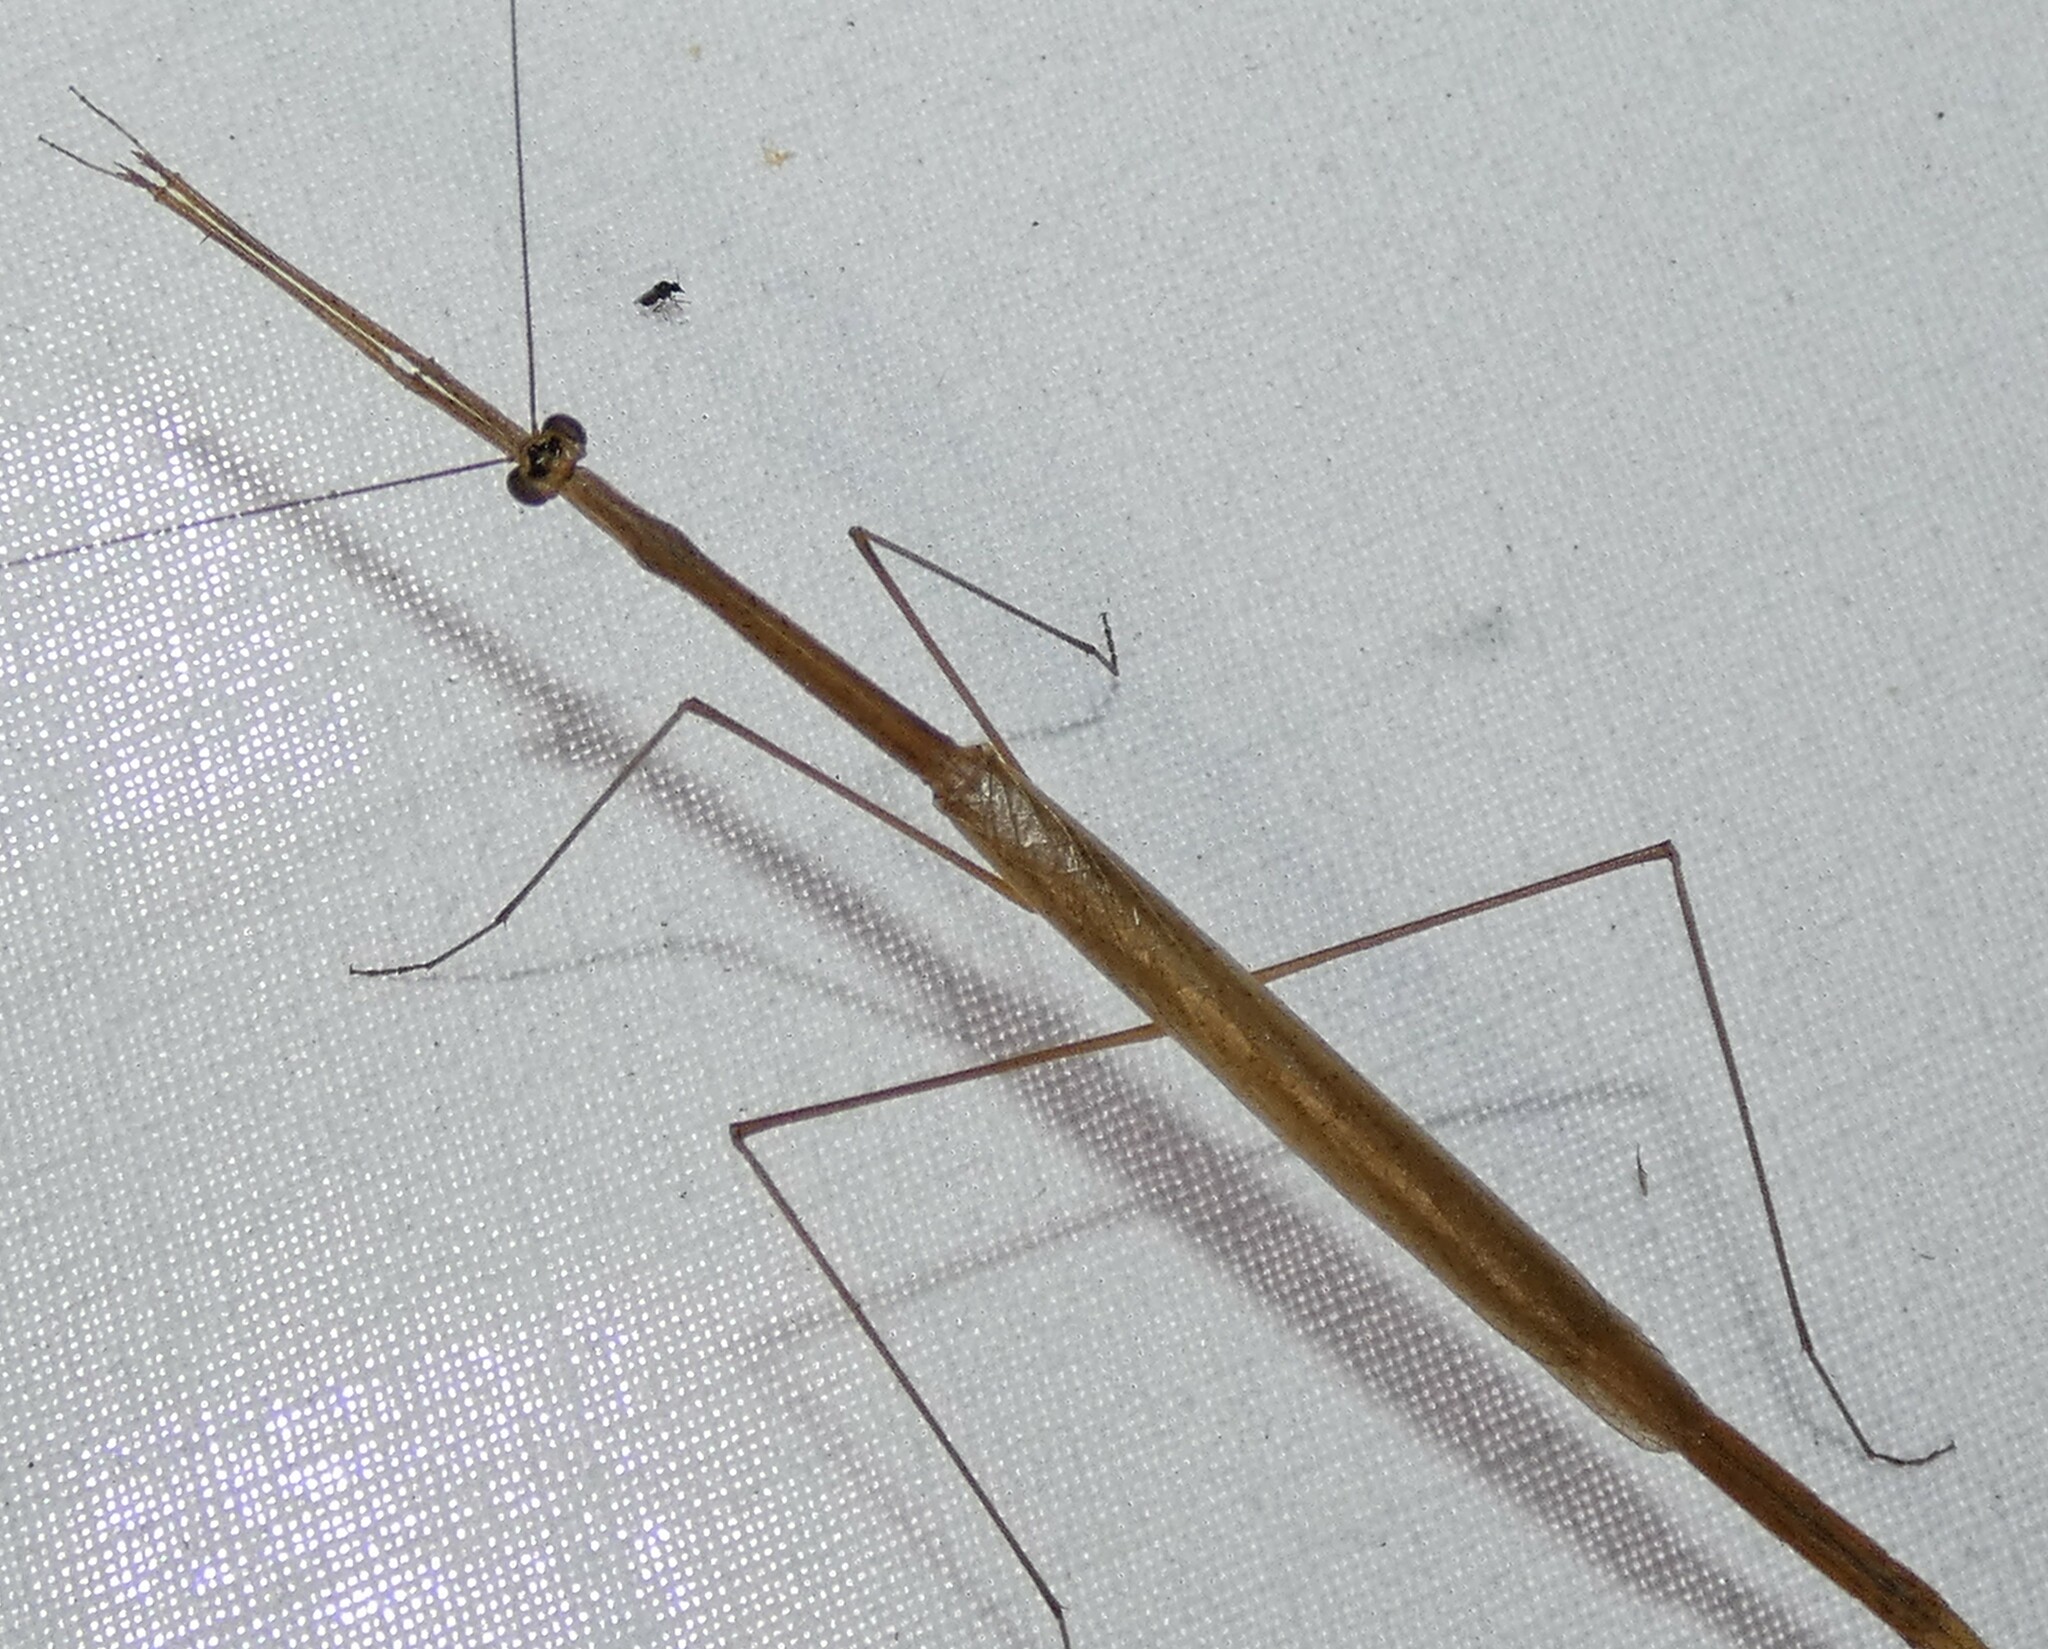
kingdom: Animalia
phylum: Arthropoda
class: Insecta
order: Mantodea
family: Thespidae
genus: Thesprotia
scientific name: Thesprotia graminis
